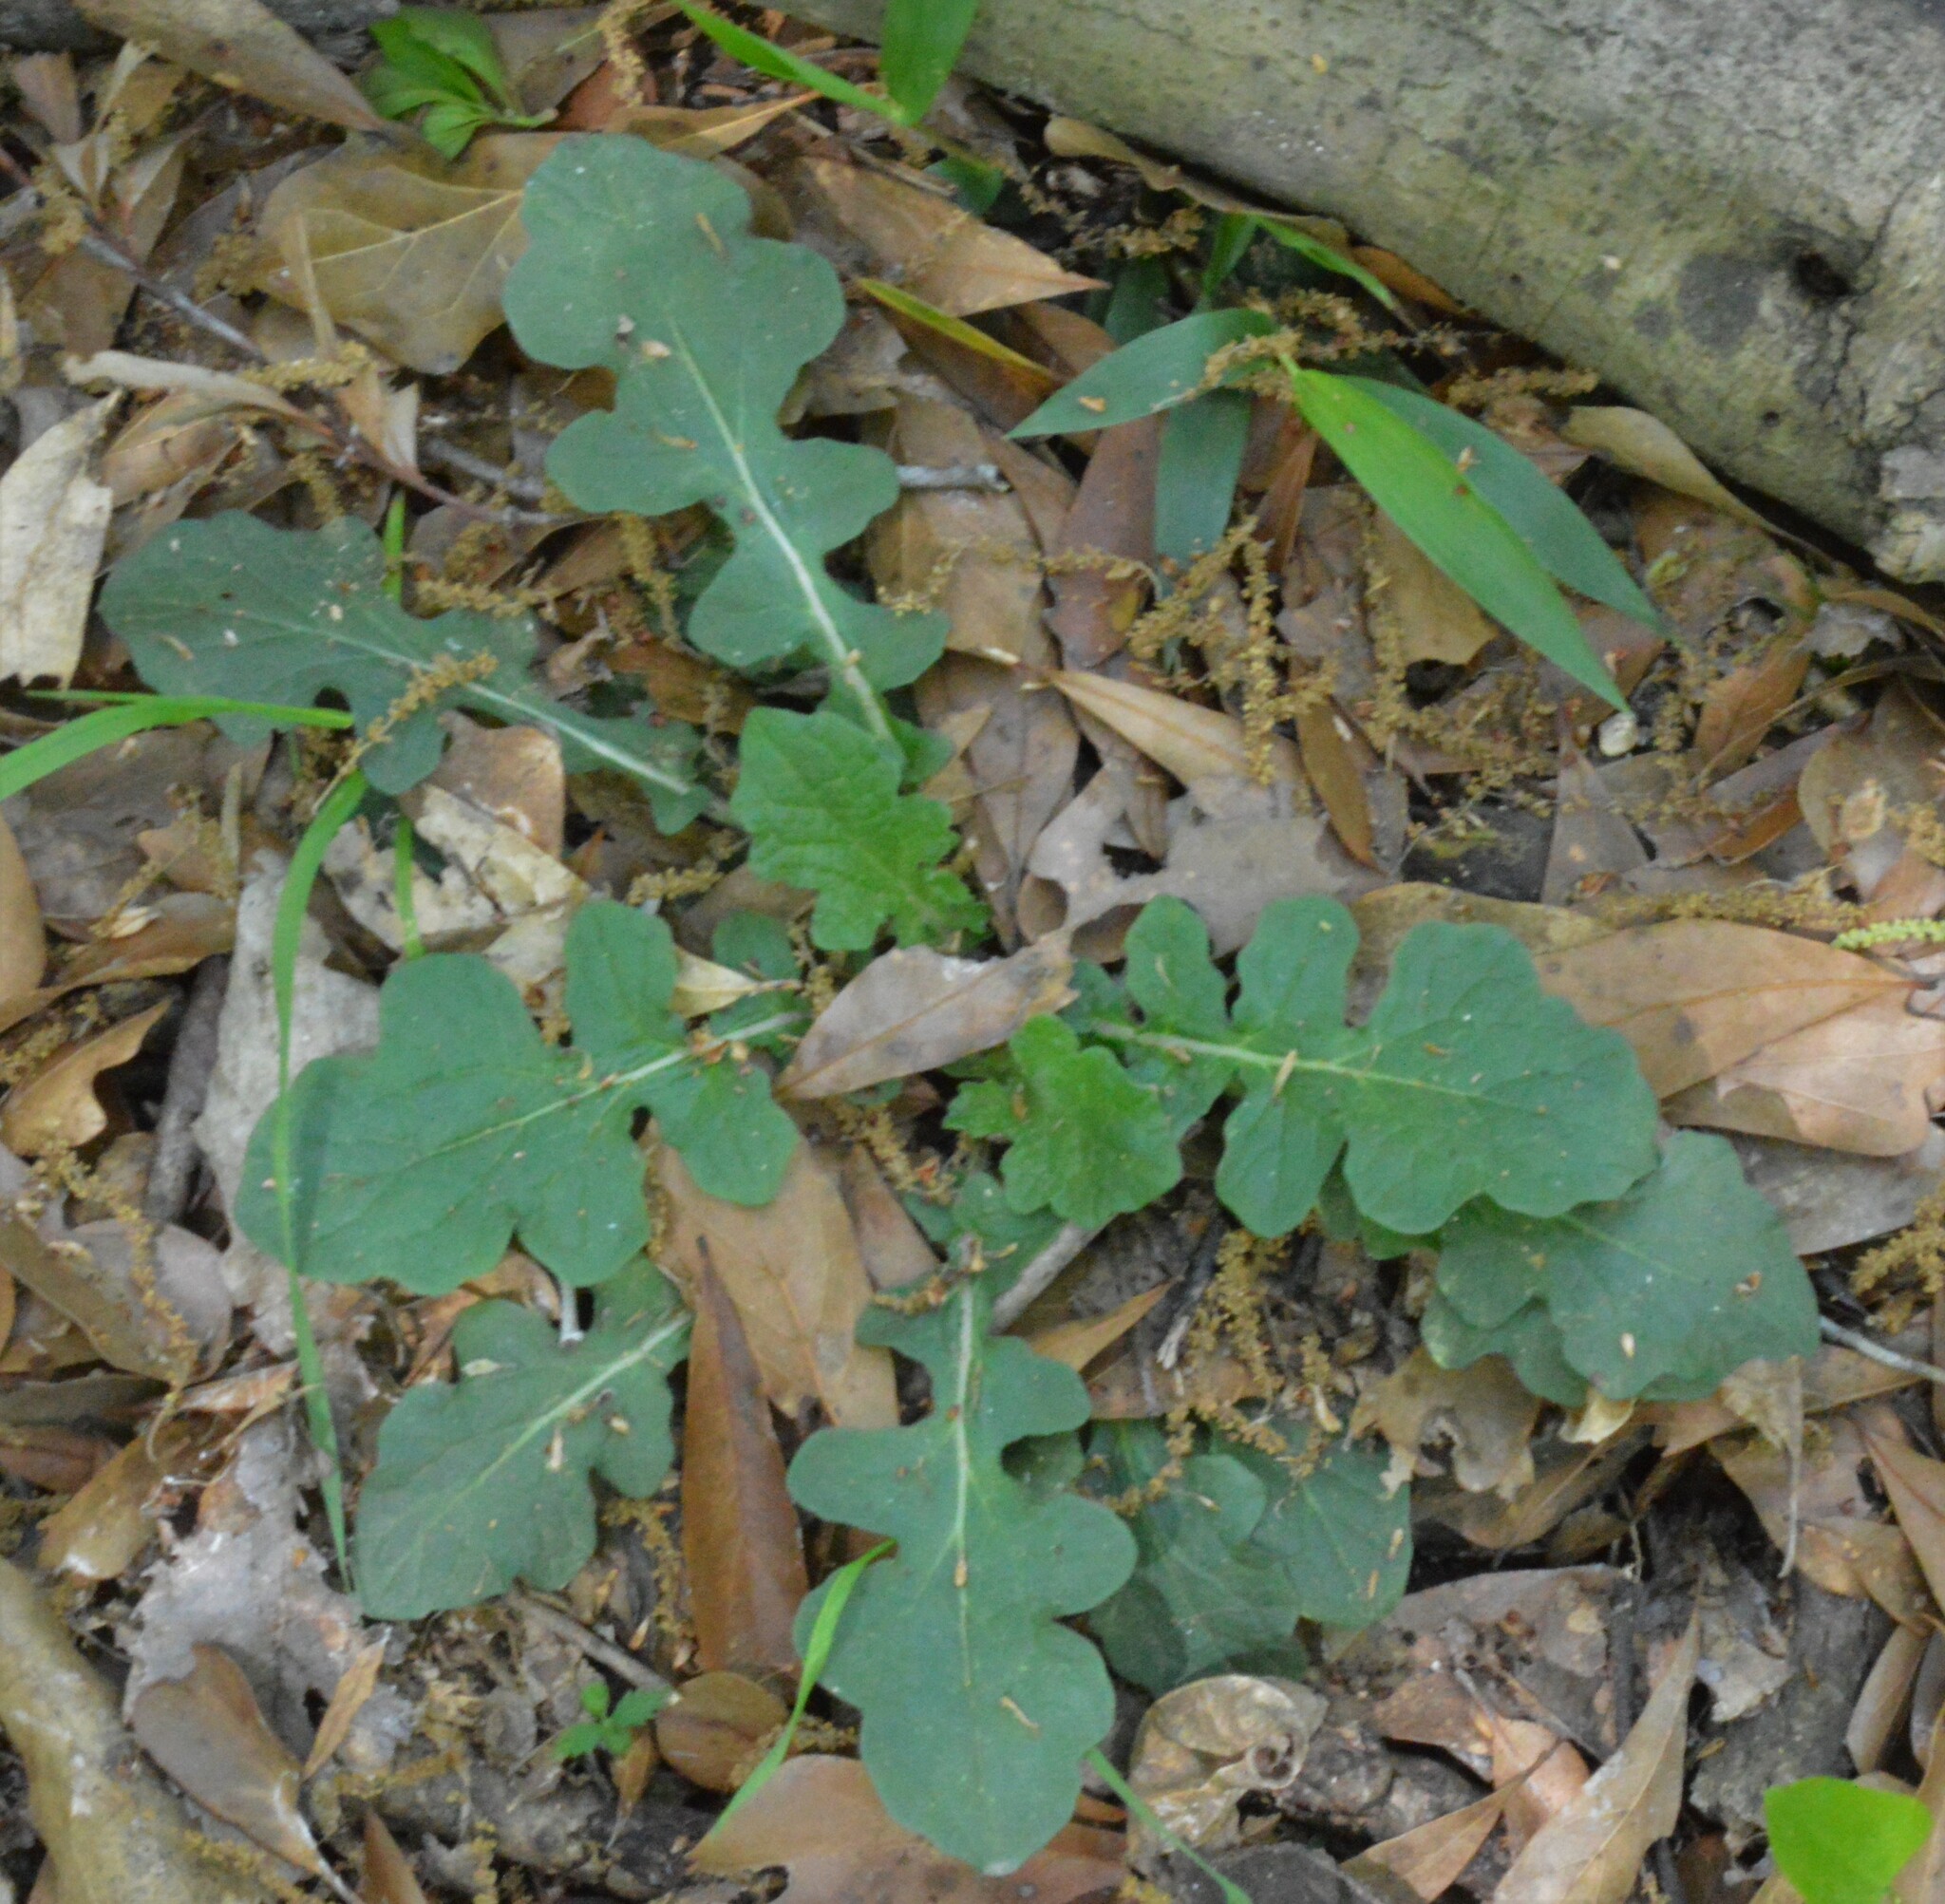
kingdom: Plantae
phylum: Tracheophyta
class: Magnoliopsida
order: Lamiales
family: Lamiaceae
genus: Salvia
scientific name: Salvia lyrata
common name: Cancerweed
